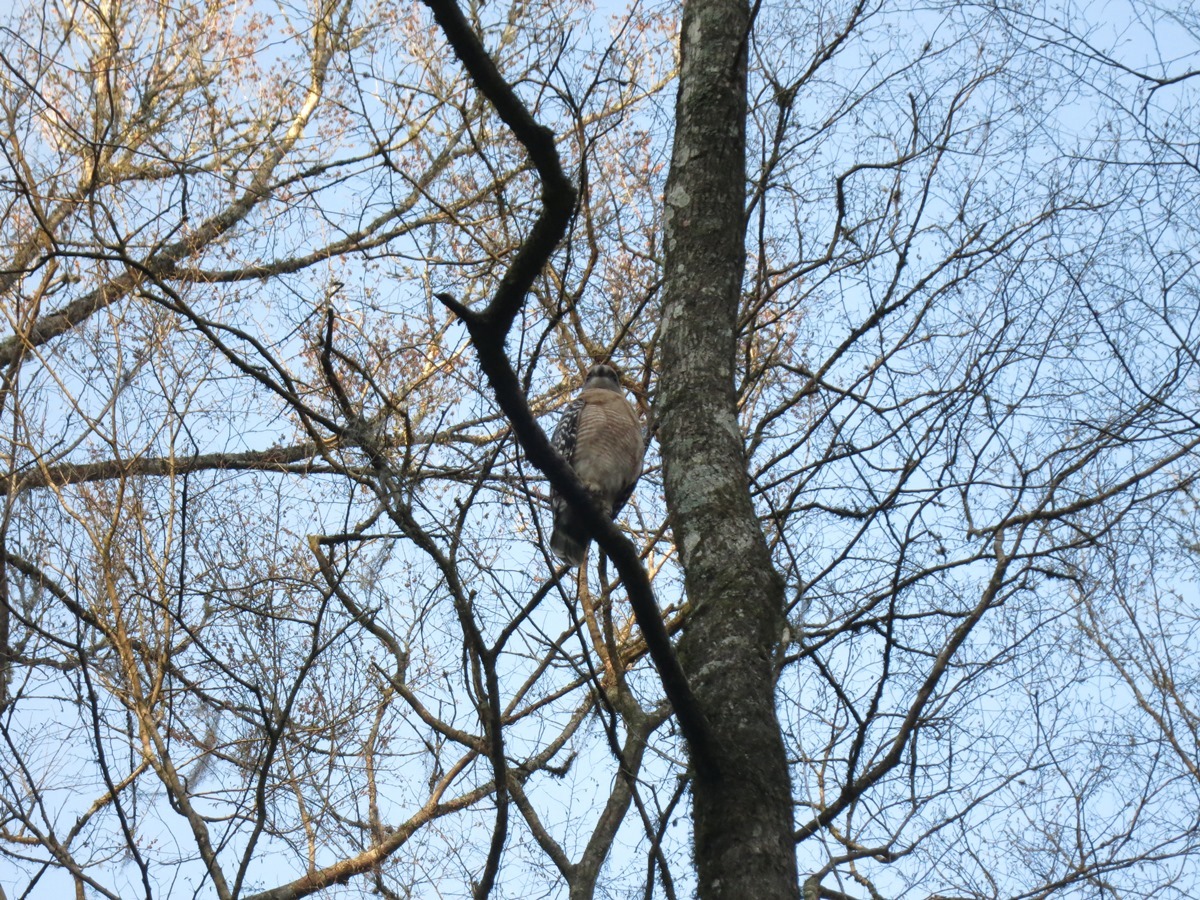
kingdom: Animalia
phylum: Chordata
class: Aves
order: Accipitriformes
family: Accipitridae
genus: Buteo
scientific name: Buteo lineatus
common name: Red-shouldered hawk
